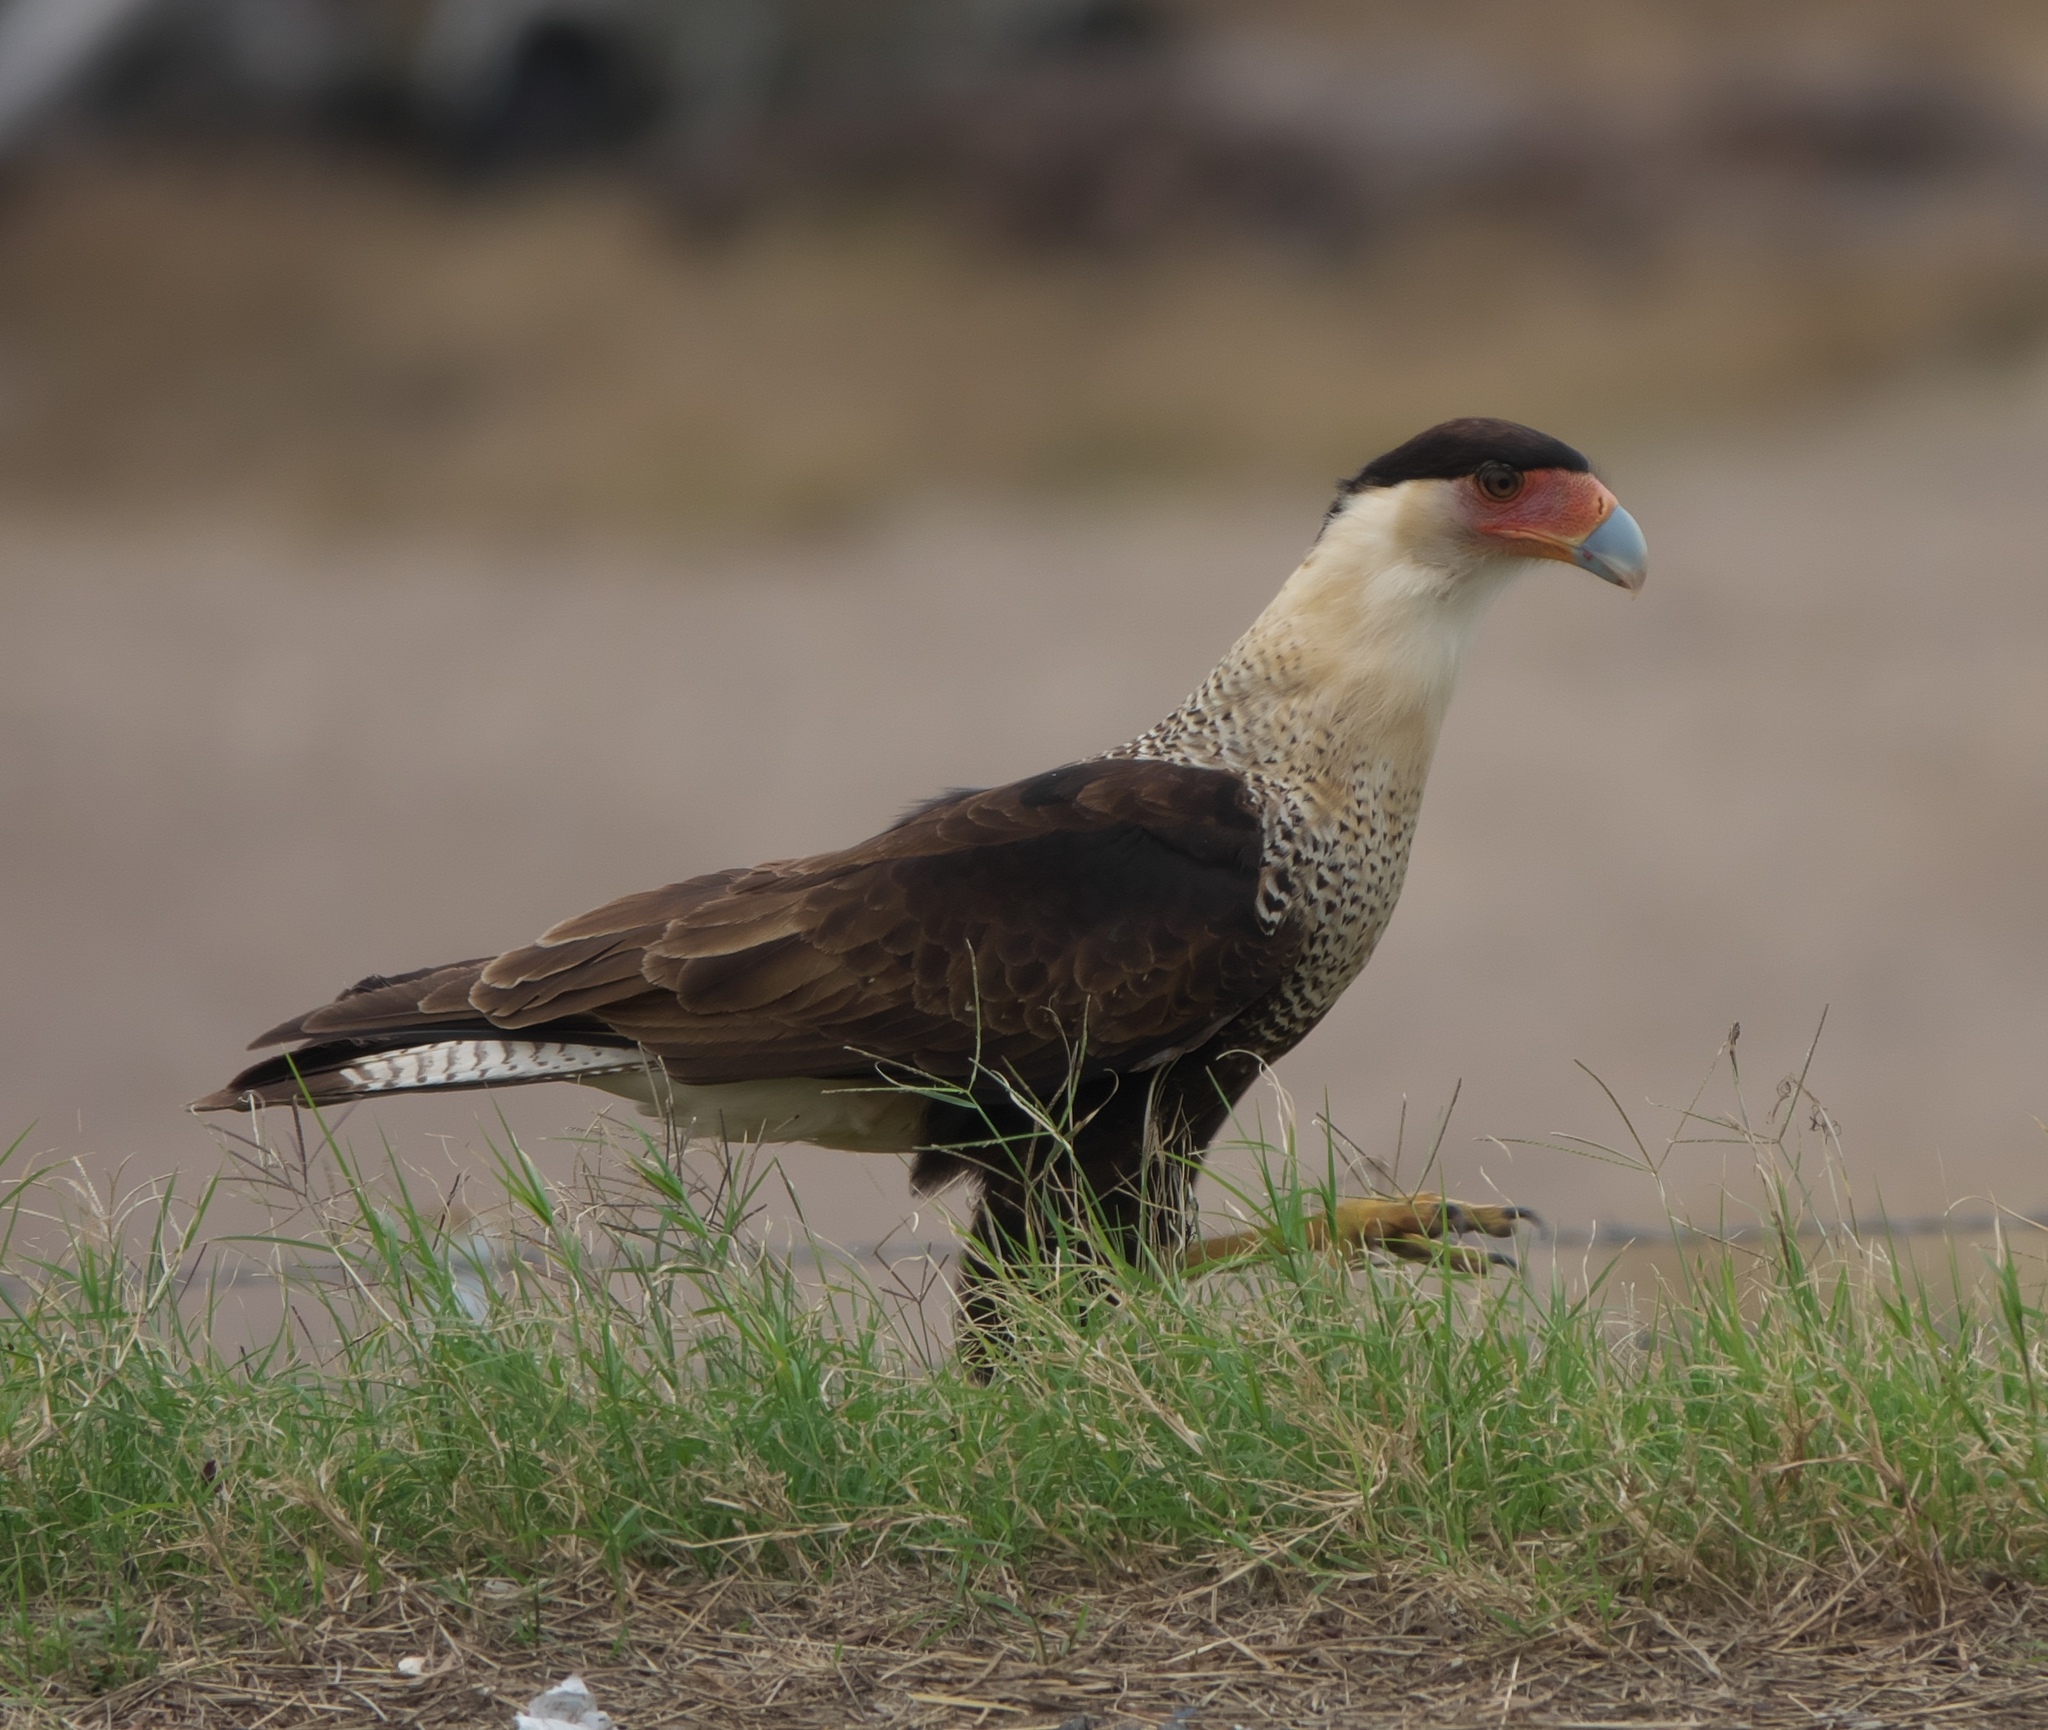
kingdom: Animalia
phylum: Chordata
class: Aves
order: Falconiformes
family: Falconidae
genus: Caracara
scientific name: Caracara plancus
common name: Southern caracara
